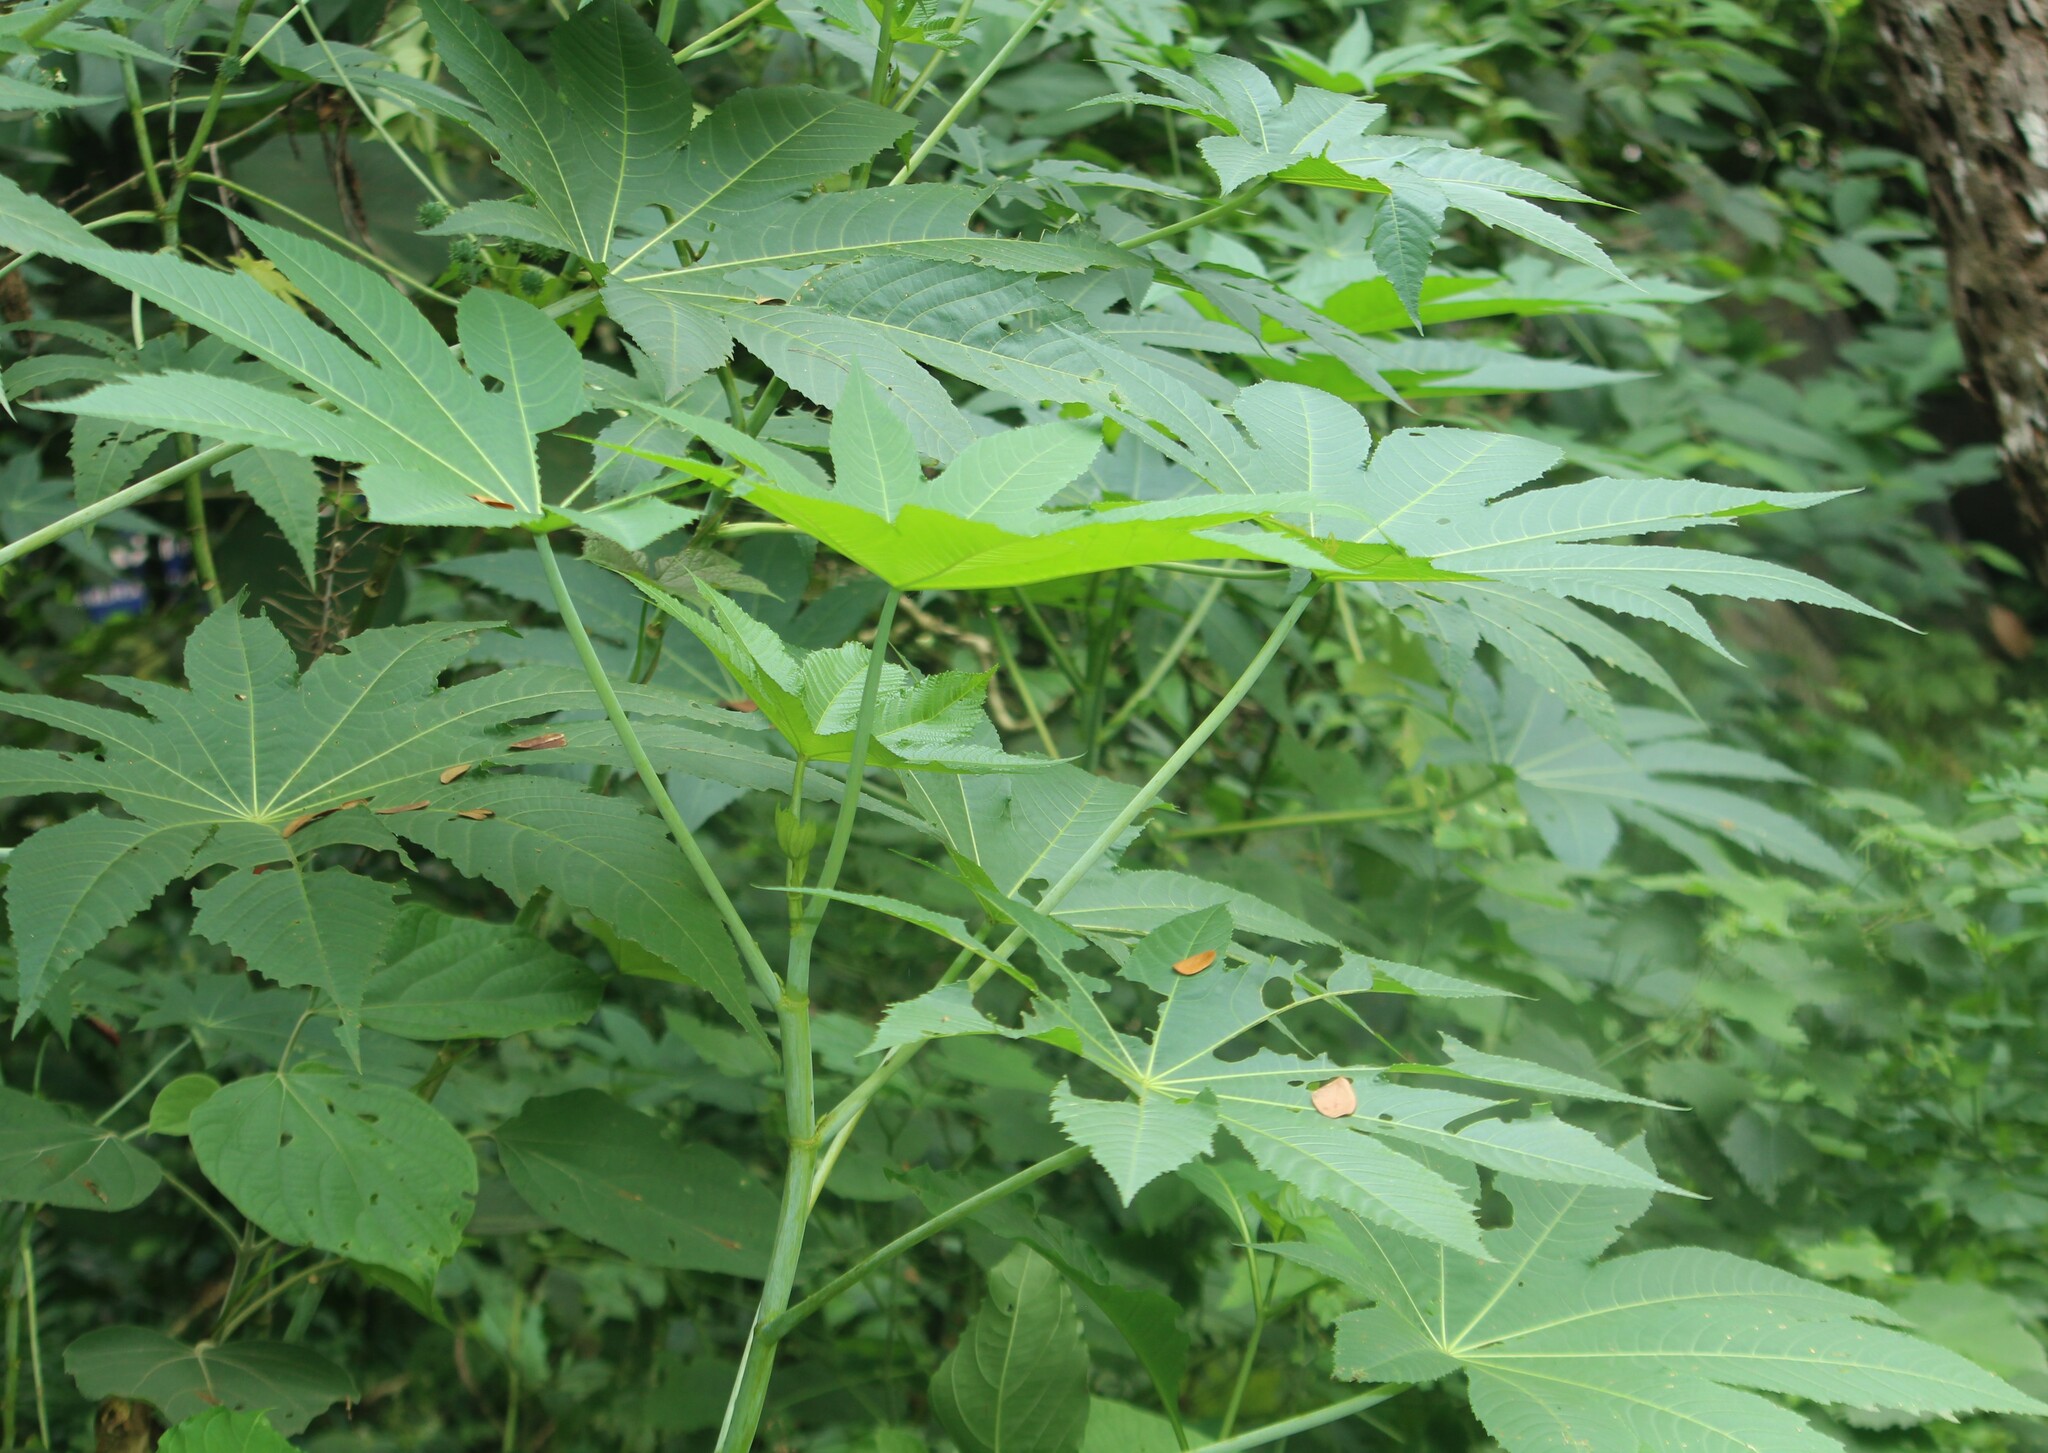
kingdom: Plantae
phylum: Tracheophyta
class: Magnoliopsida
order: Malpighiales
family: Euphorbiaceae
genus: Ricinus
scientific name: Ricinus communis
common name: Castor-oil-plant
